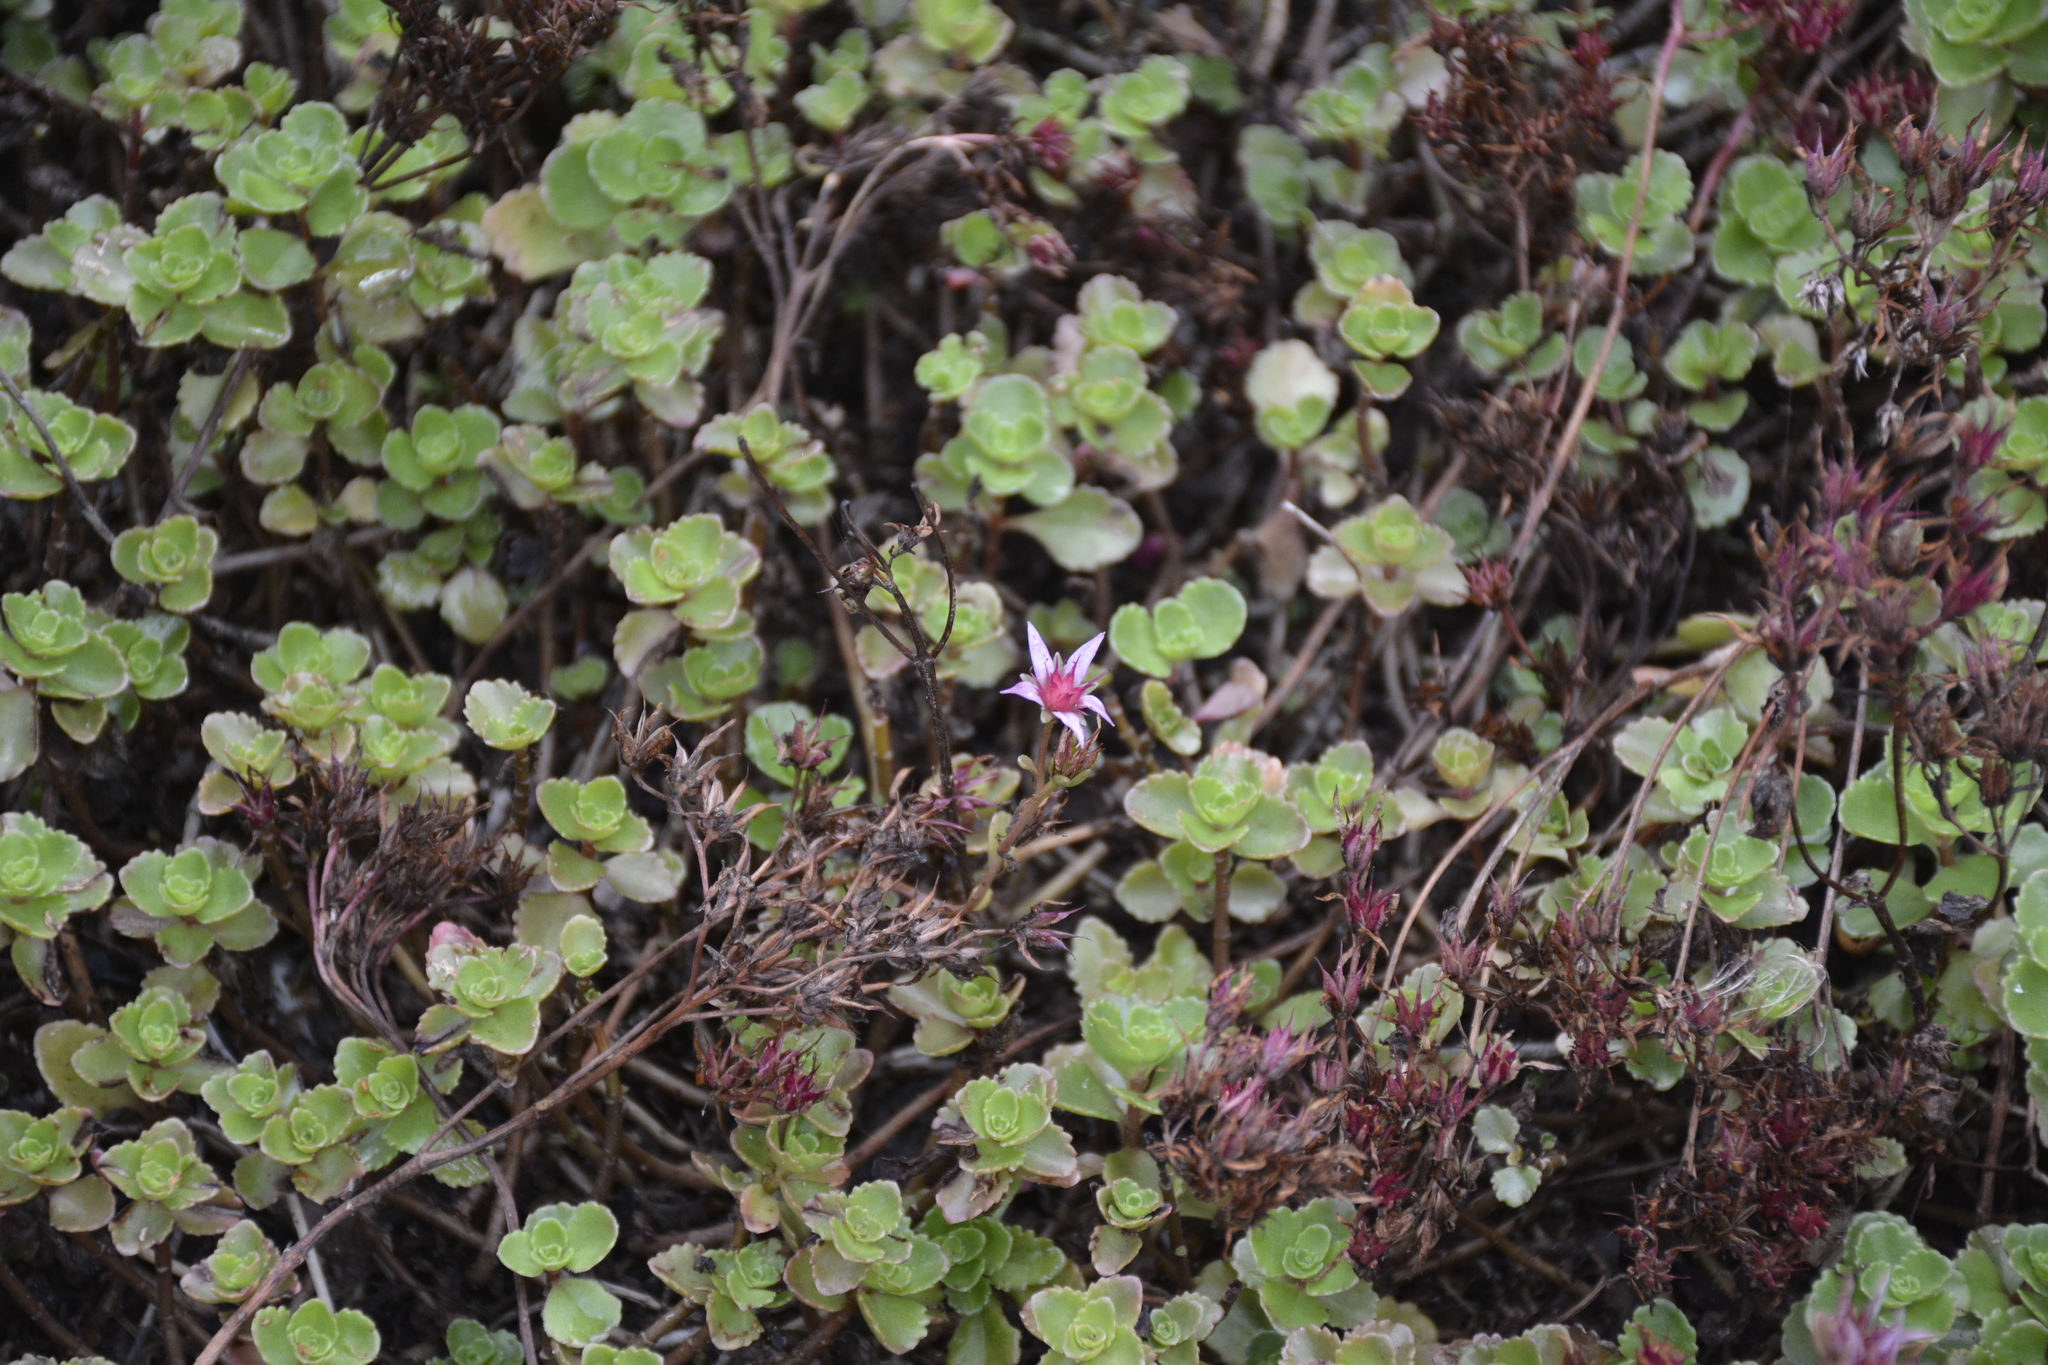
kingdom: Plantae
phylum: Tracheophyta
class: Magnoliopsida
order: Saxifragales
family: Crassulaceae
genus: Phedimus
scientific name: Phedimus spurius
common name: Caucasian stonecrop
